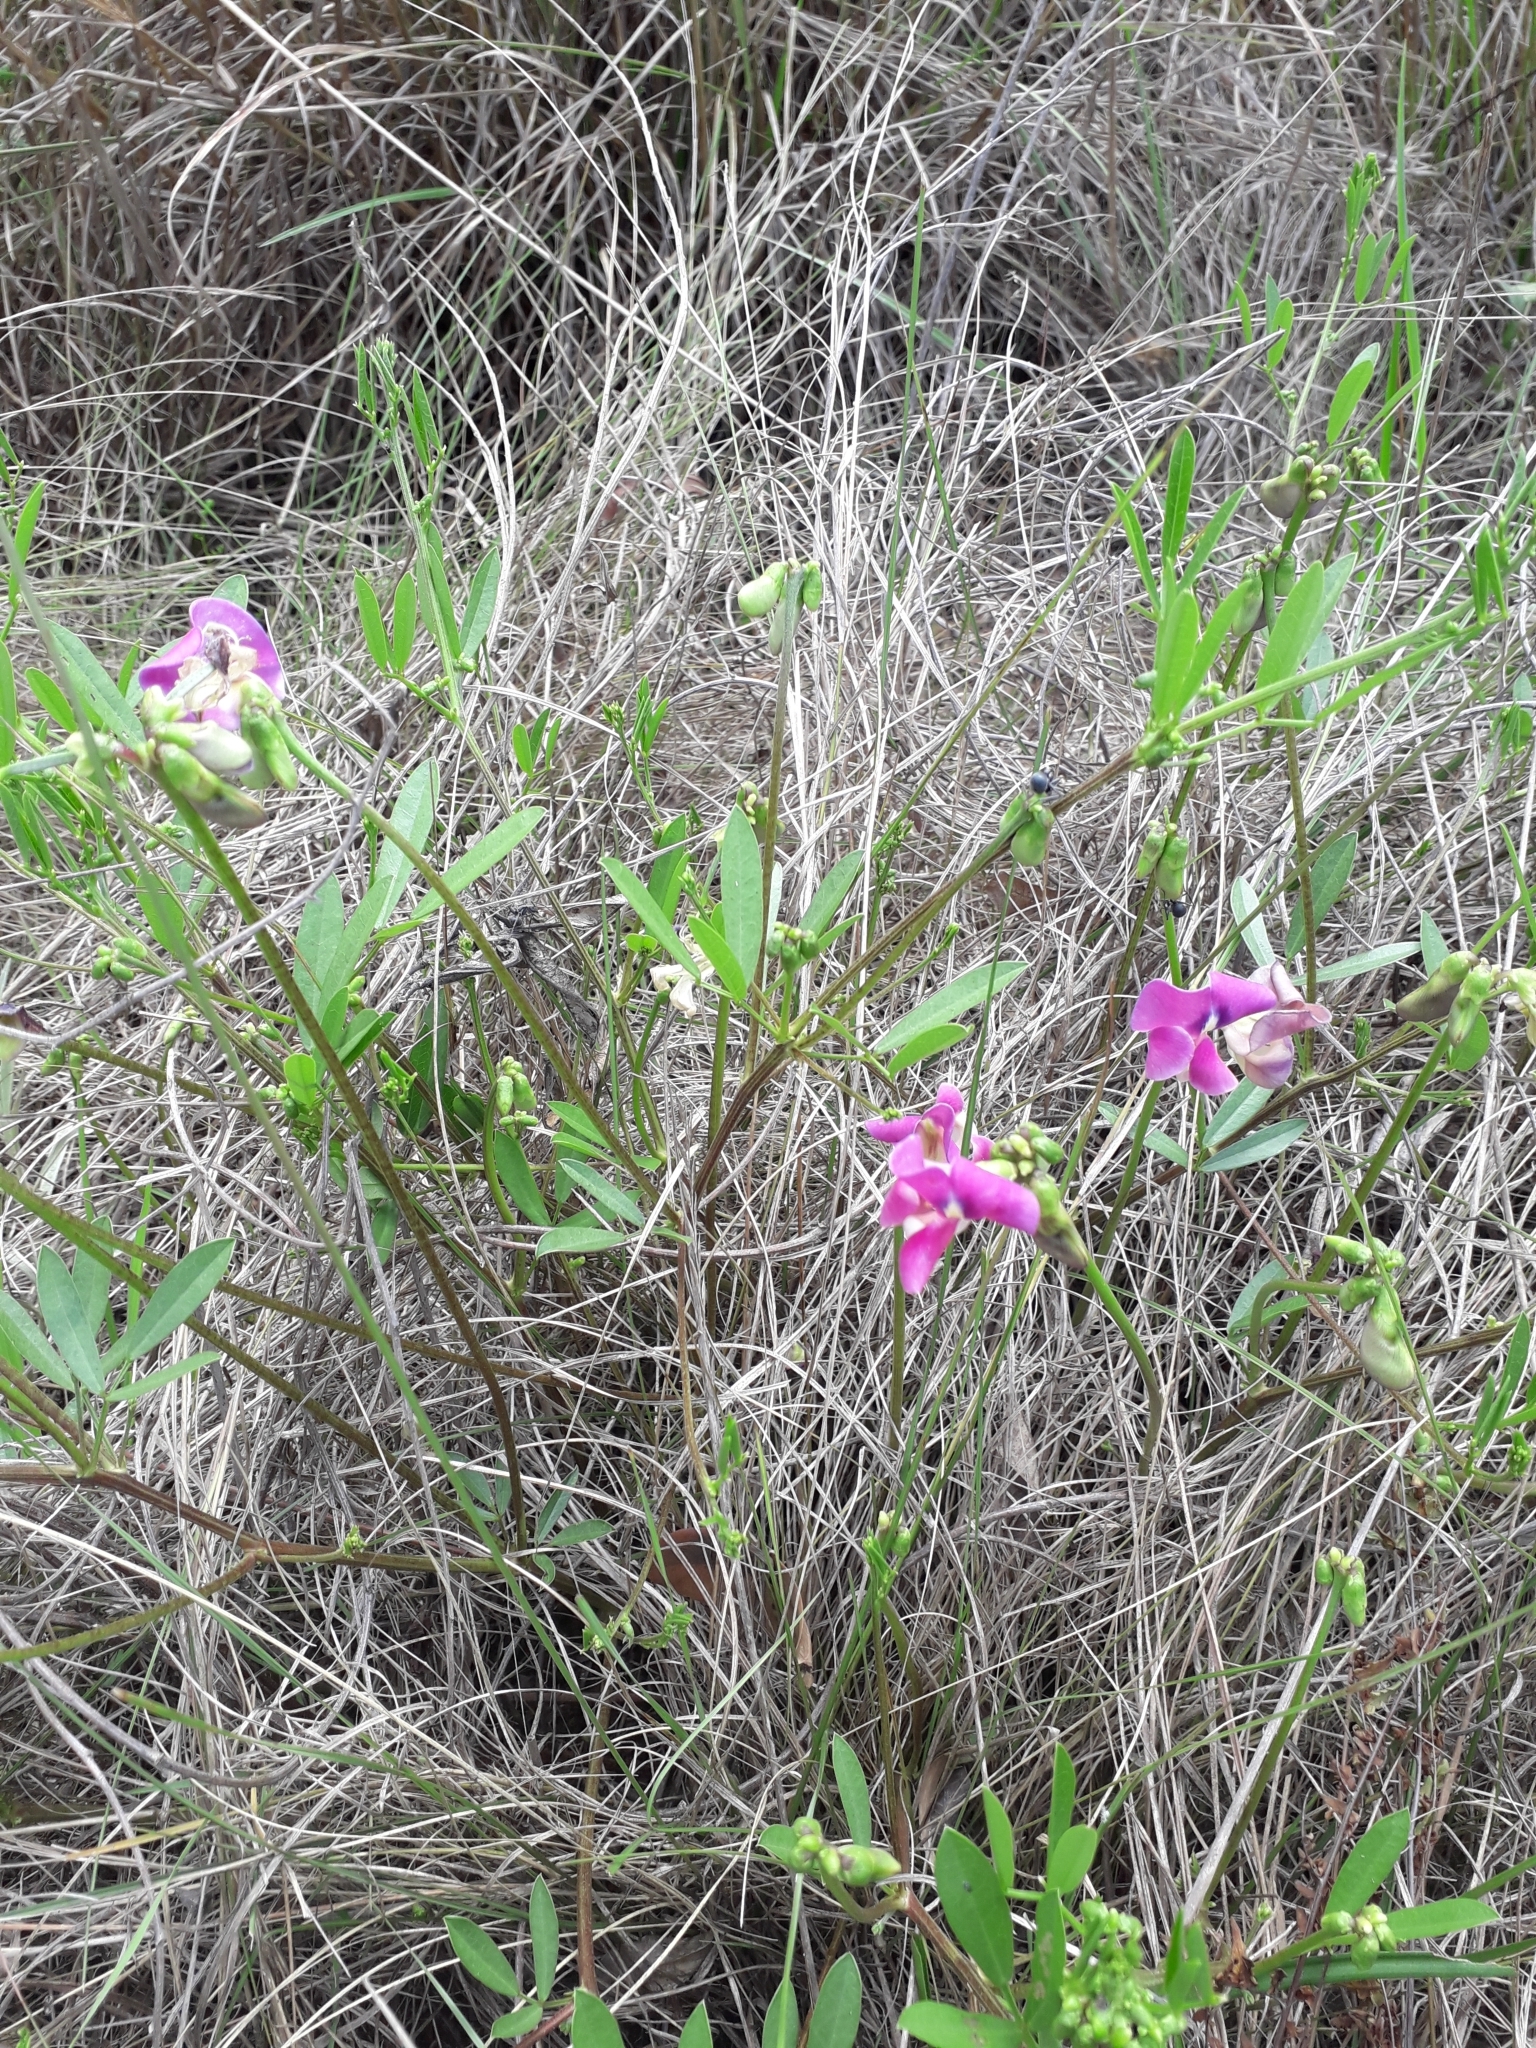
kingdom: Plantae
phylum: Tracheophyta
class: Magnoliopsida
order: Fabales
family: Fabaceae
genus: Sphenostylis
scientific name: Sphenostylis angustifolia
